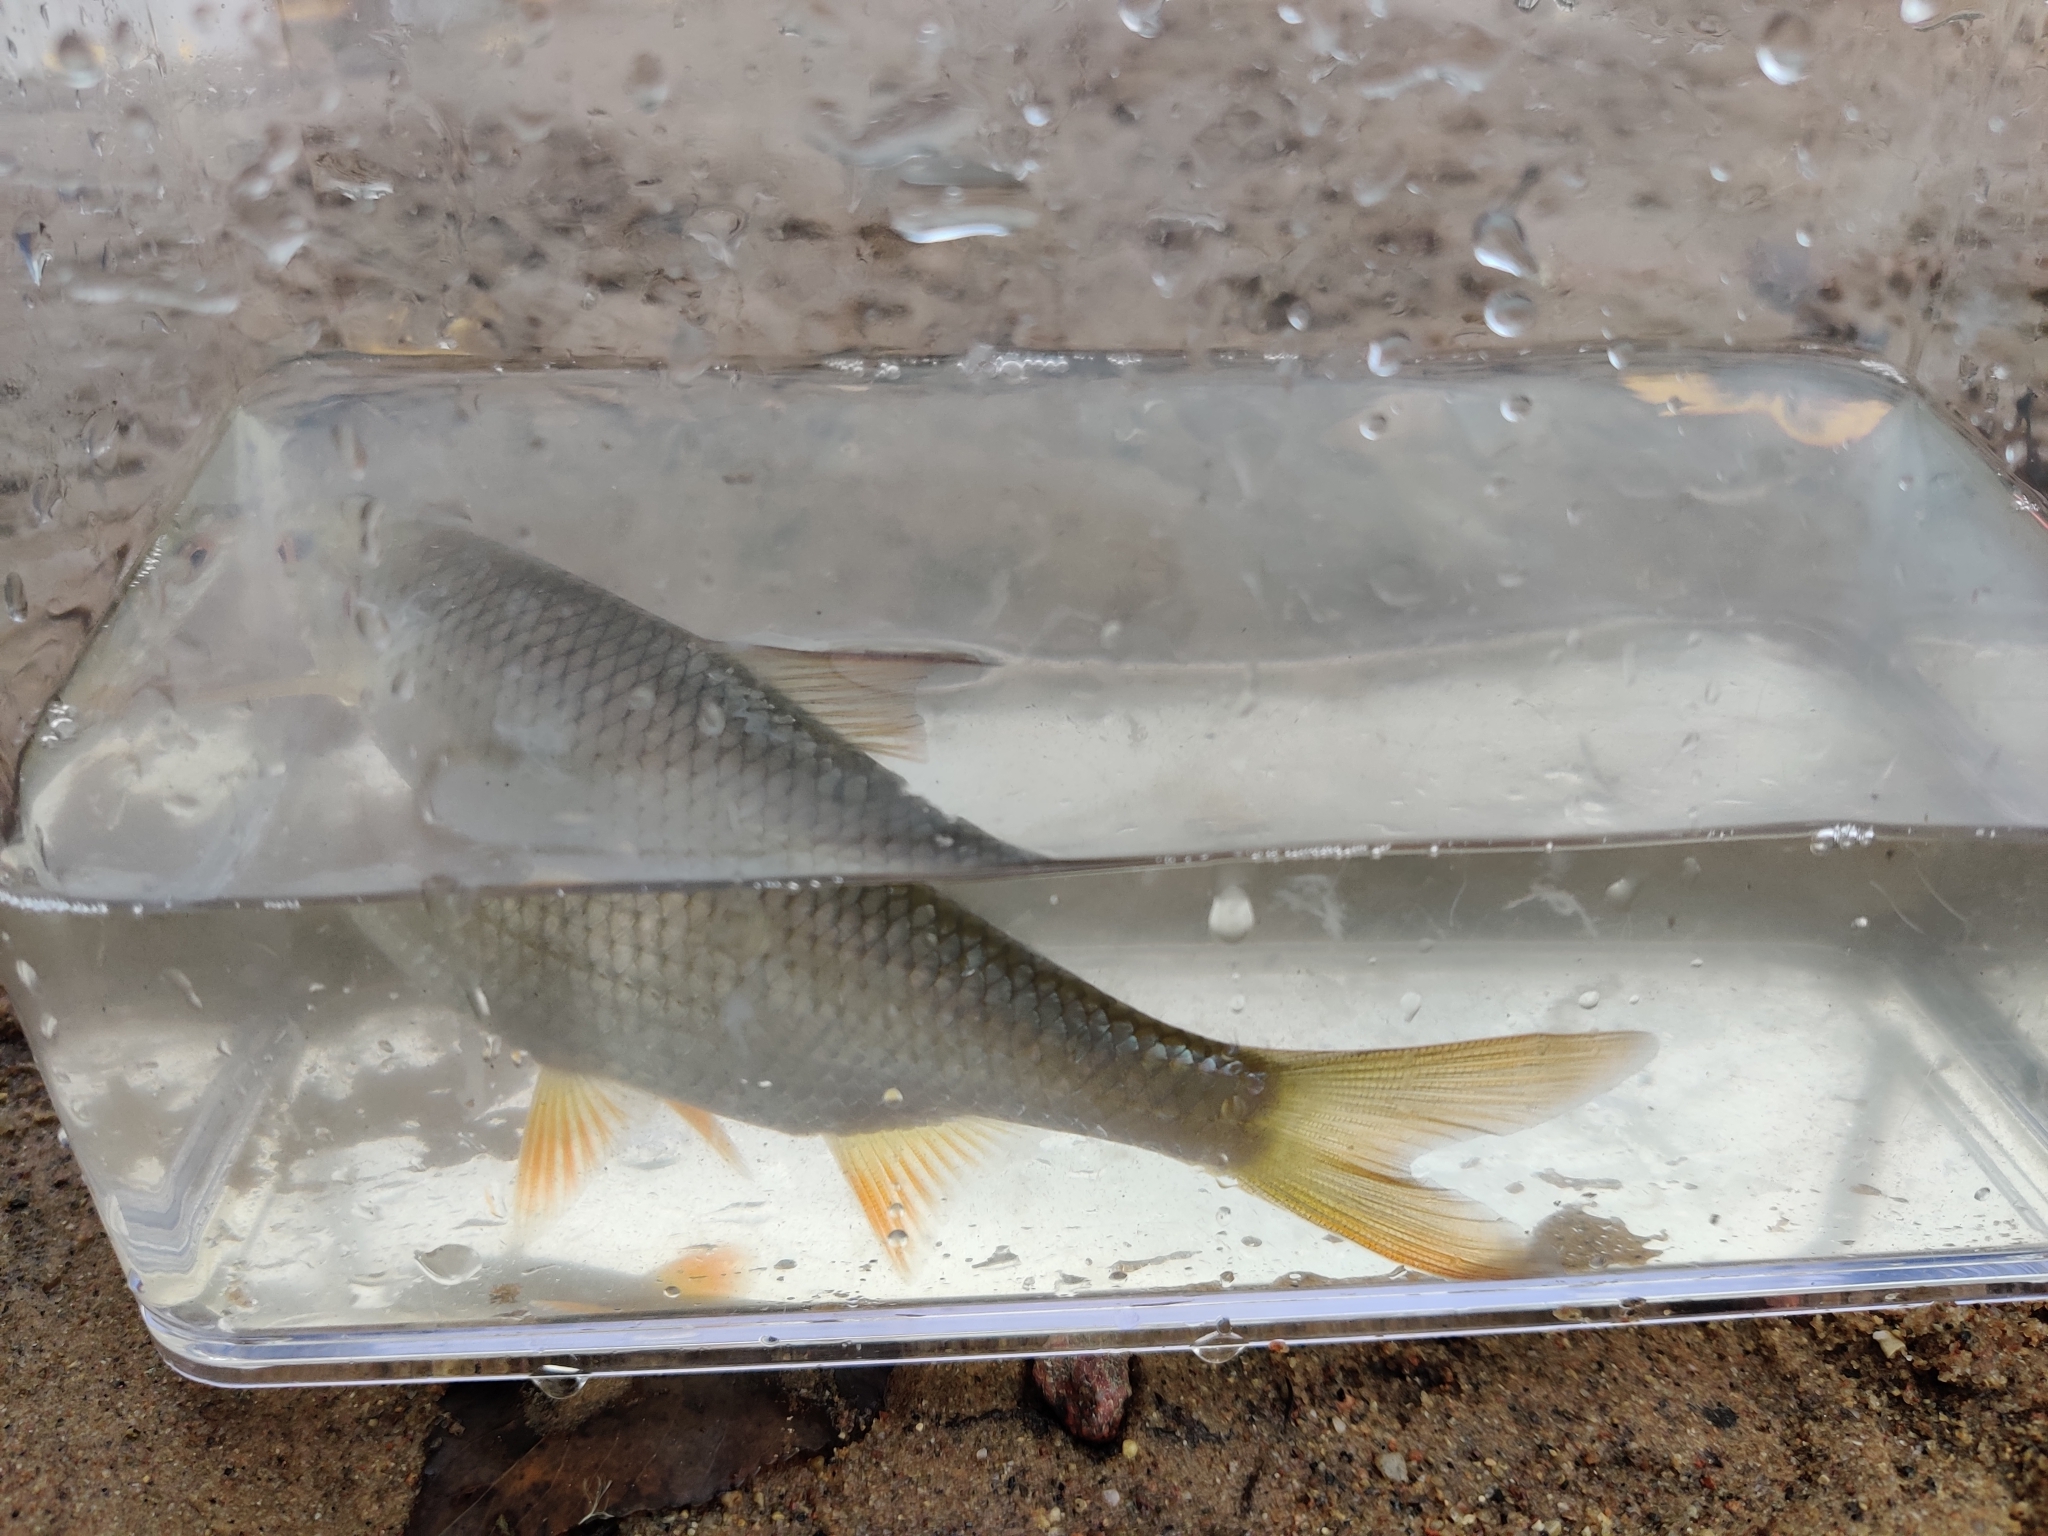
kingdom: Animalia
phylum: Chordata
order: Cypriniformes
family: Cyprinidae
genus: Rutilus
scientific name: Rutilus rutilus
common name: Roach
